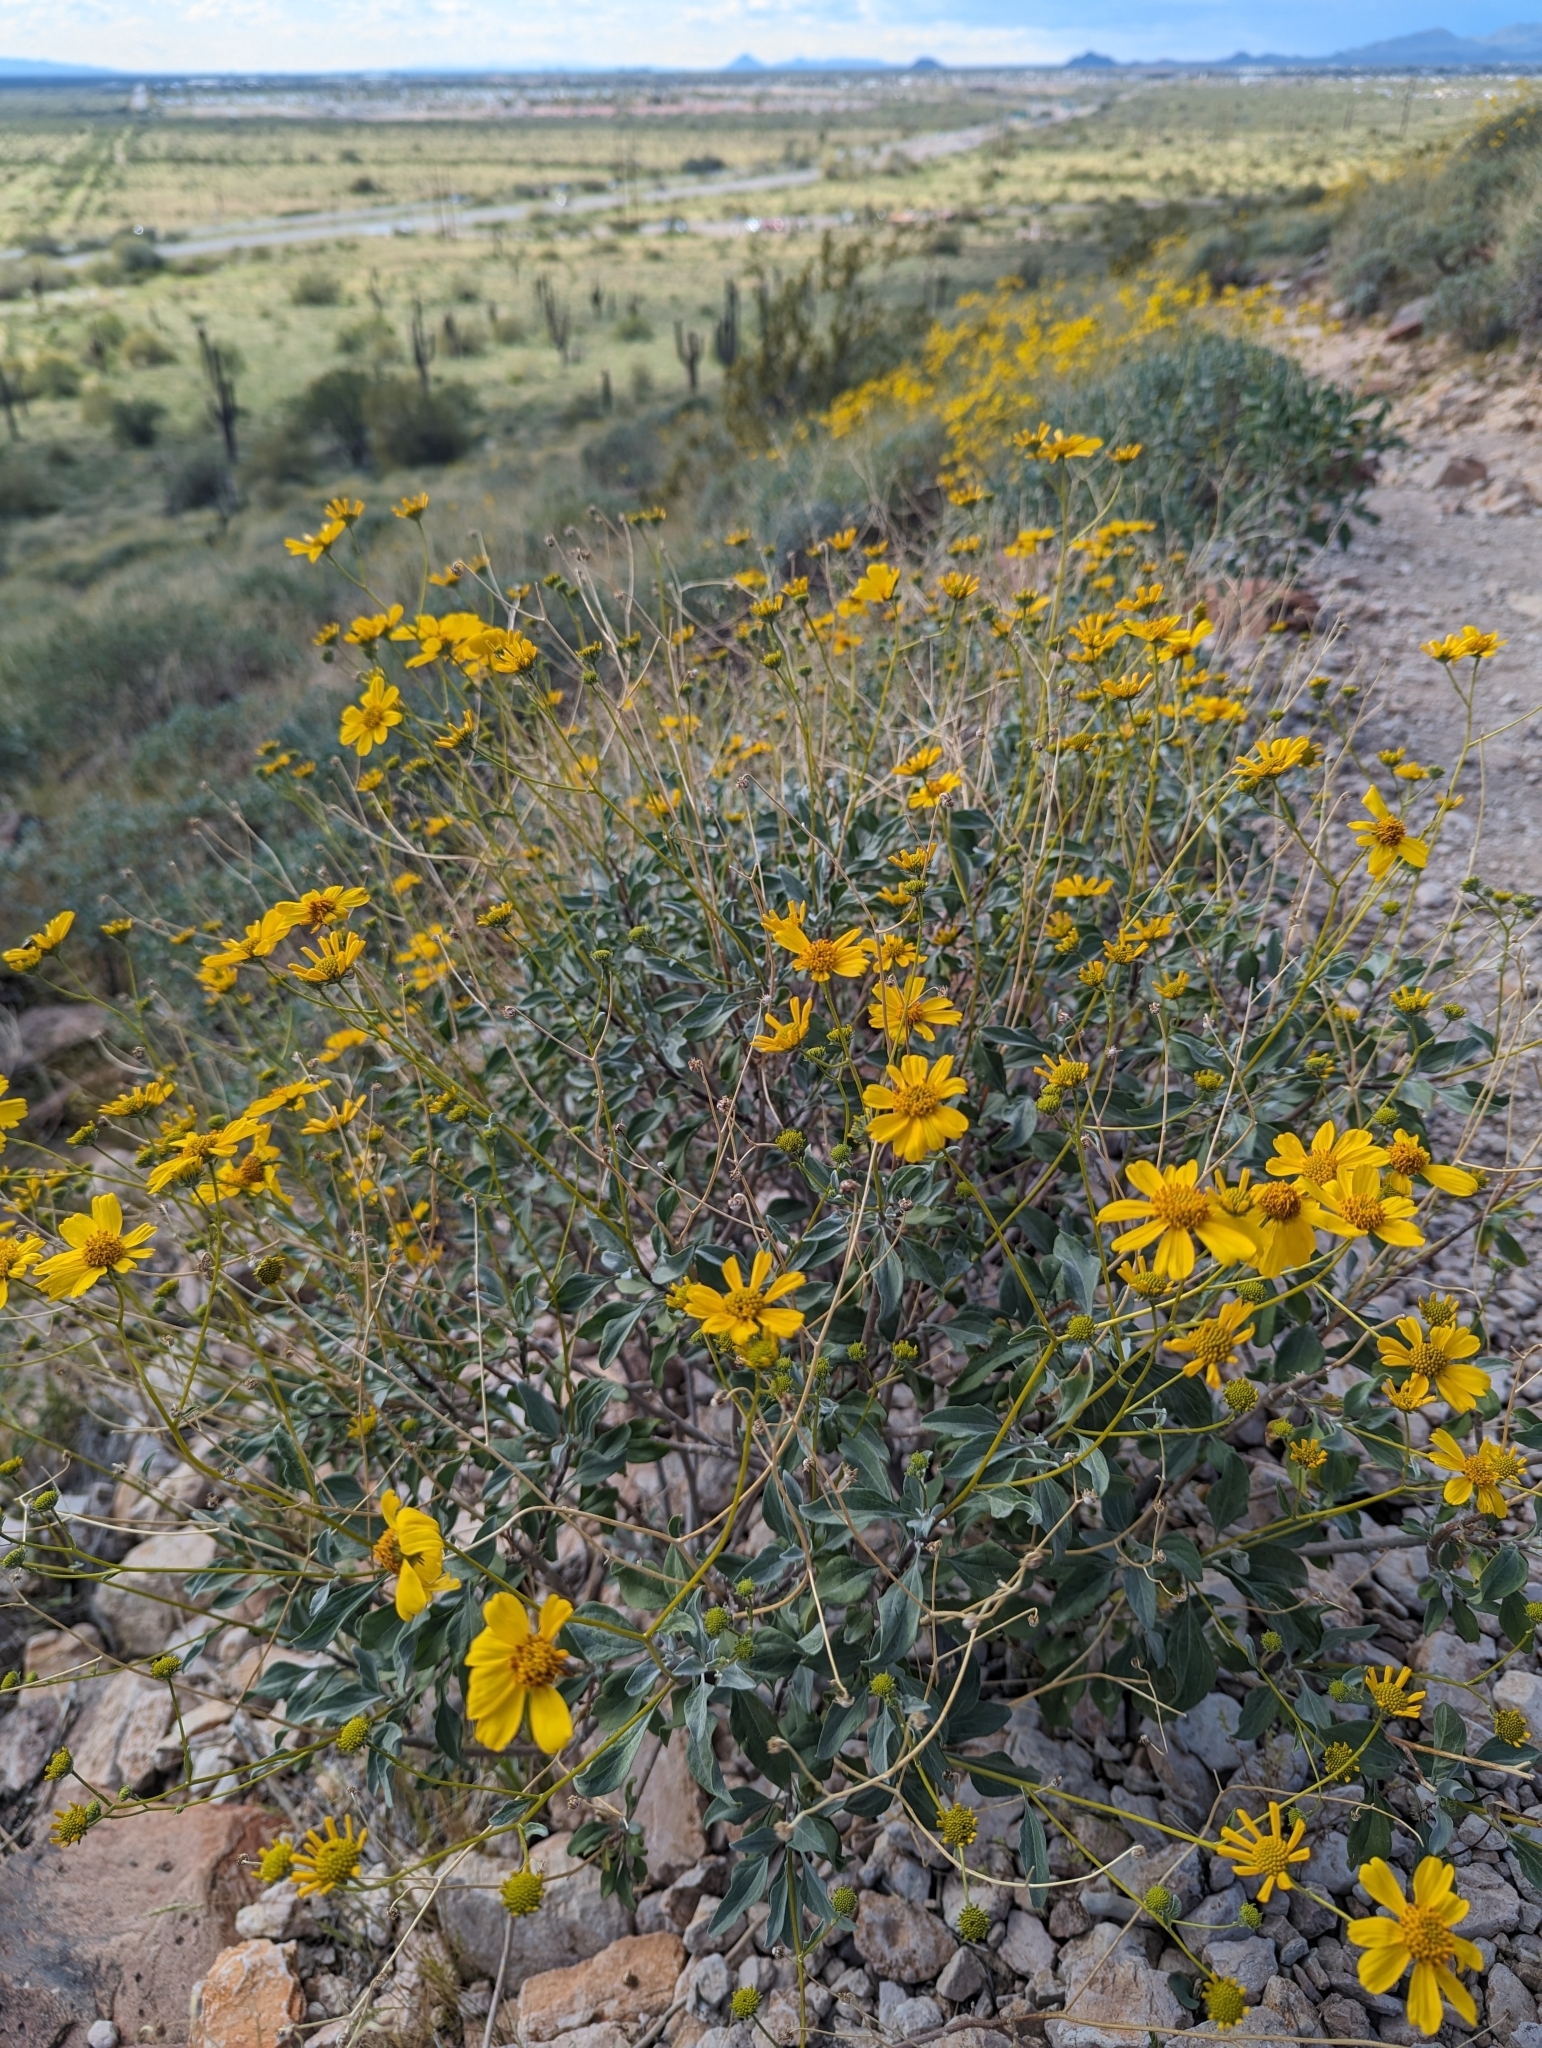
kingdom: Plantae
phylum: Tracheophyta
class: Magnoliopsida
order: Asterales
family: Asteraceae
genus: Encelia
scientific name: Encelia farinosa
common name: Brittlebush
